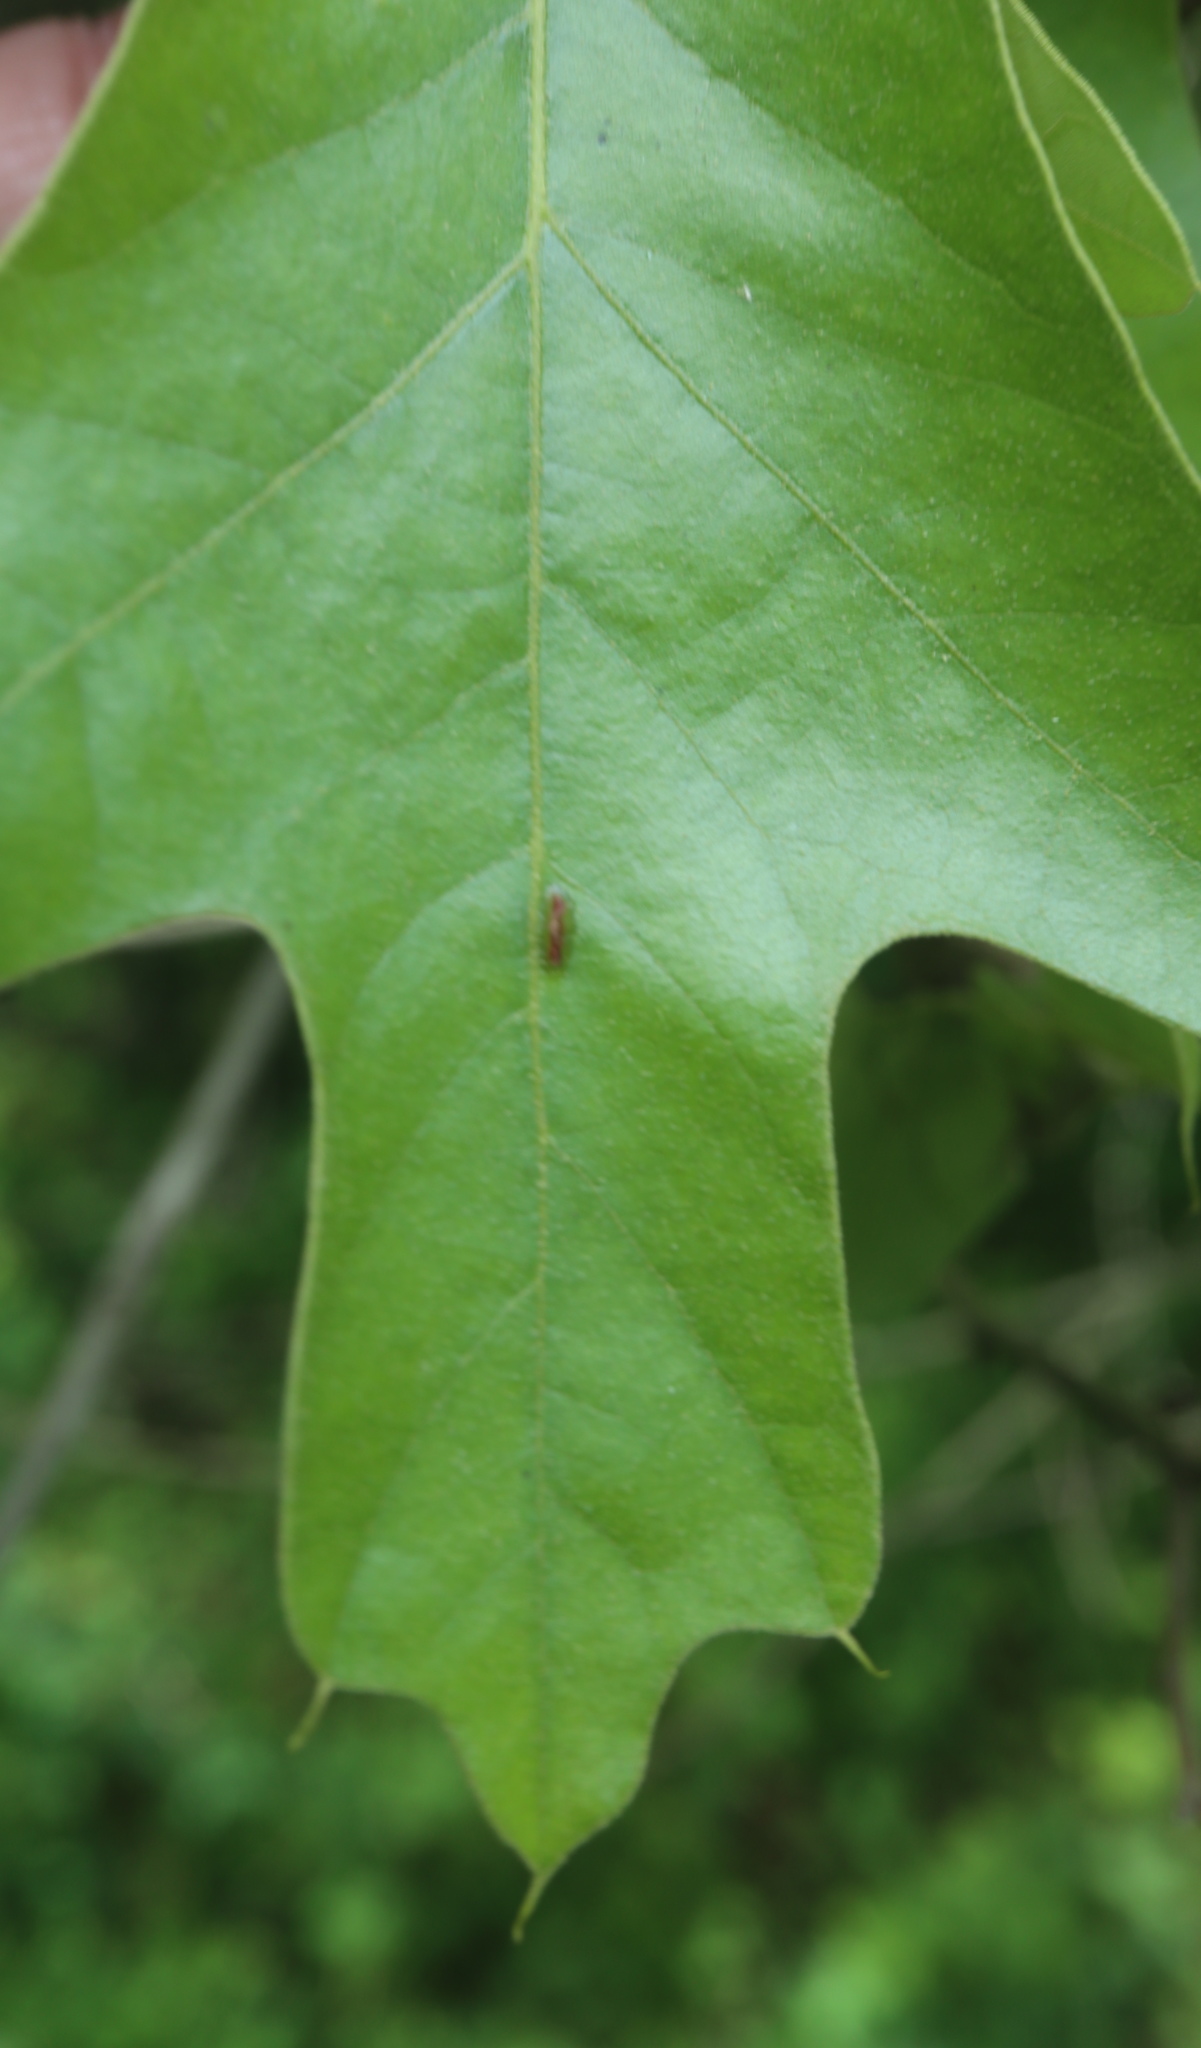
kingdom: Animalia
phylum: Arthropoda
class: Insecta
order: Diptera
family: Cecidomyiidae
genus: Macrodiplosis
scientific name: Macrodiplosis niveipila
